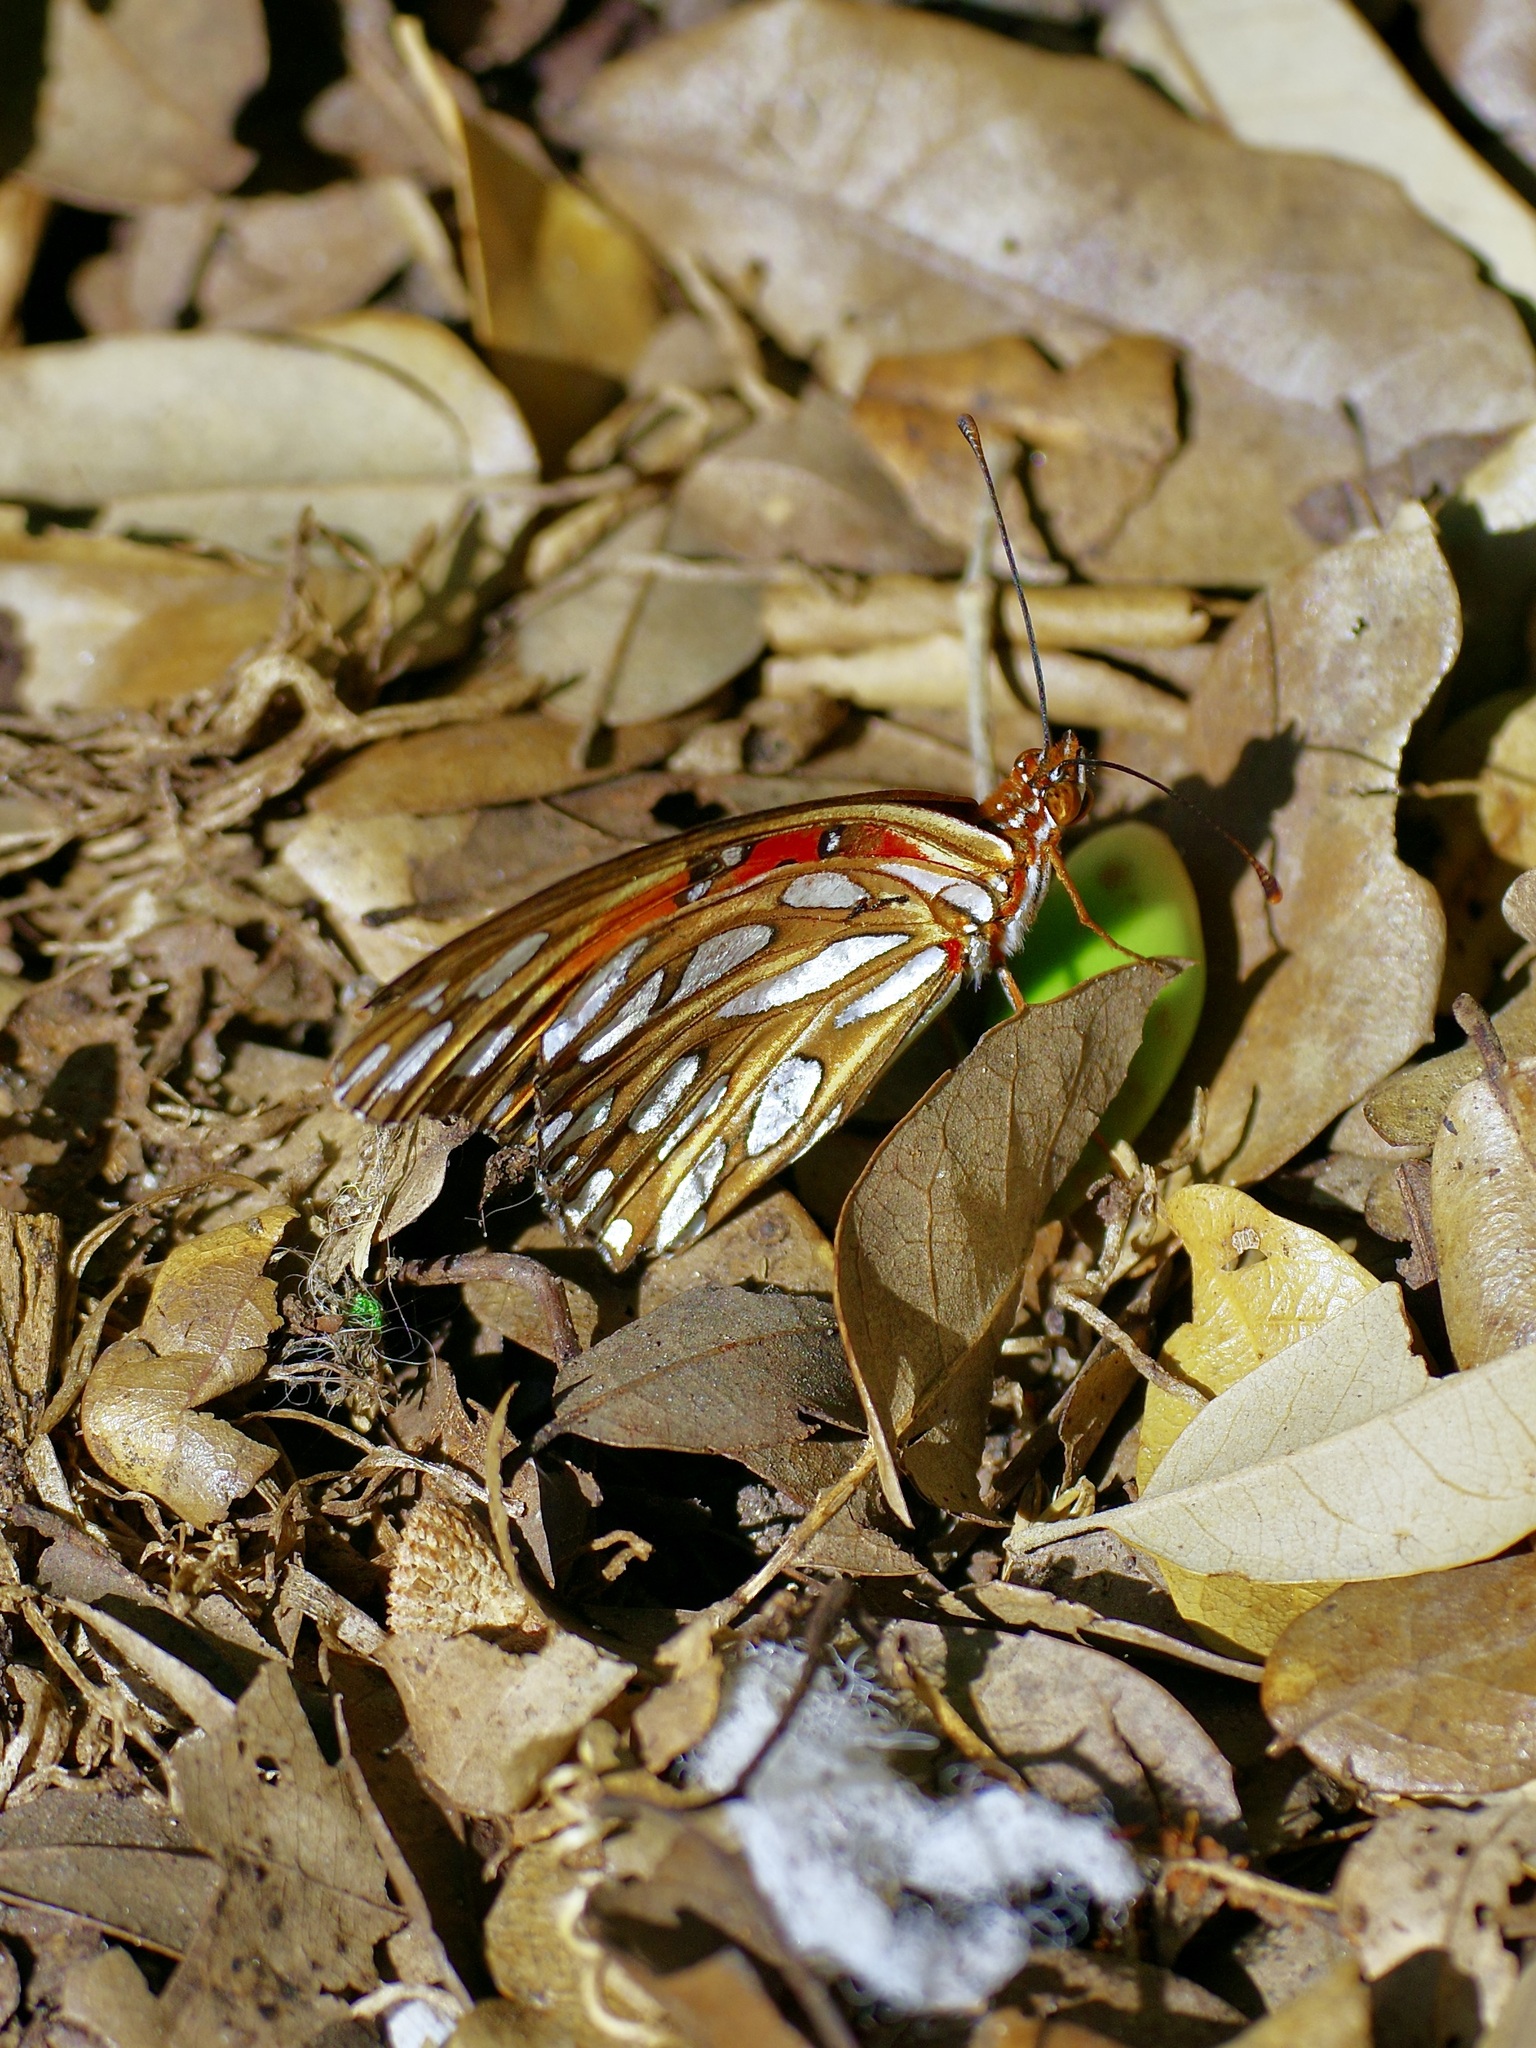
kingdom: Animalia
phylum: Arthropoda
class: Insecta
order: Lepidoptera
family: Nymphalidae
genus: Dione
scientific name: Dione vanillae
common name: Gulf fritillary
